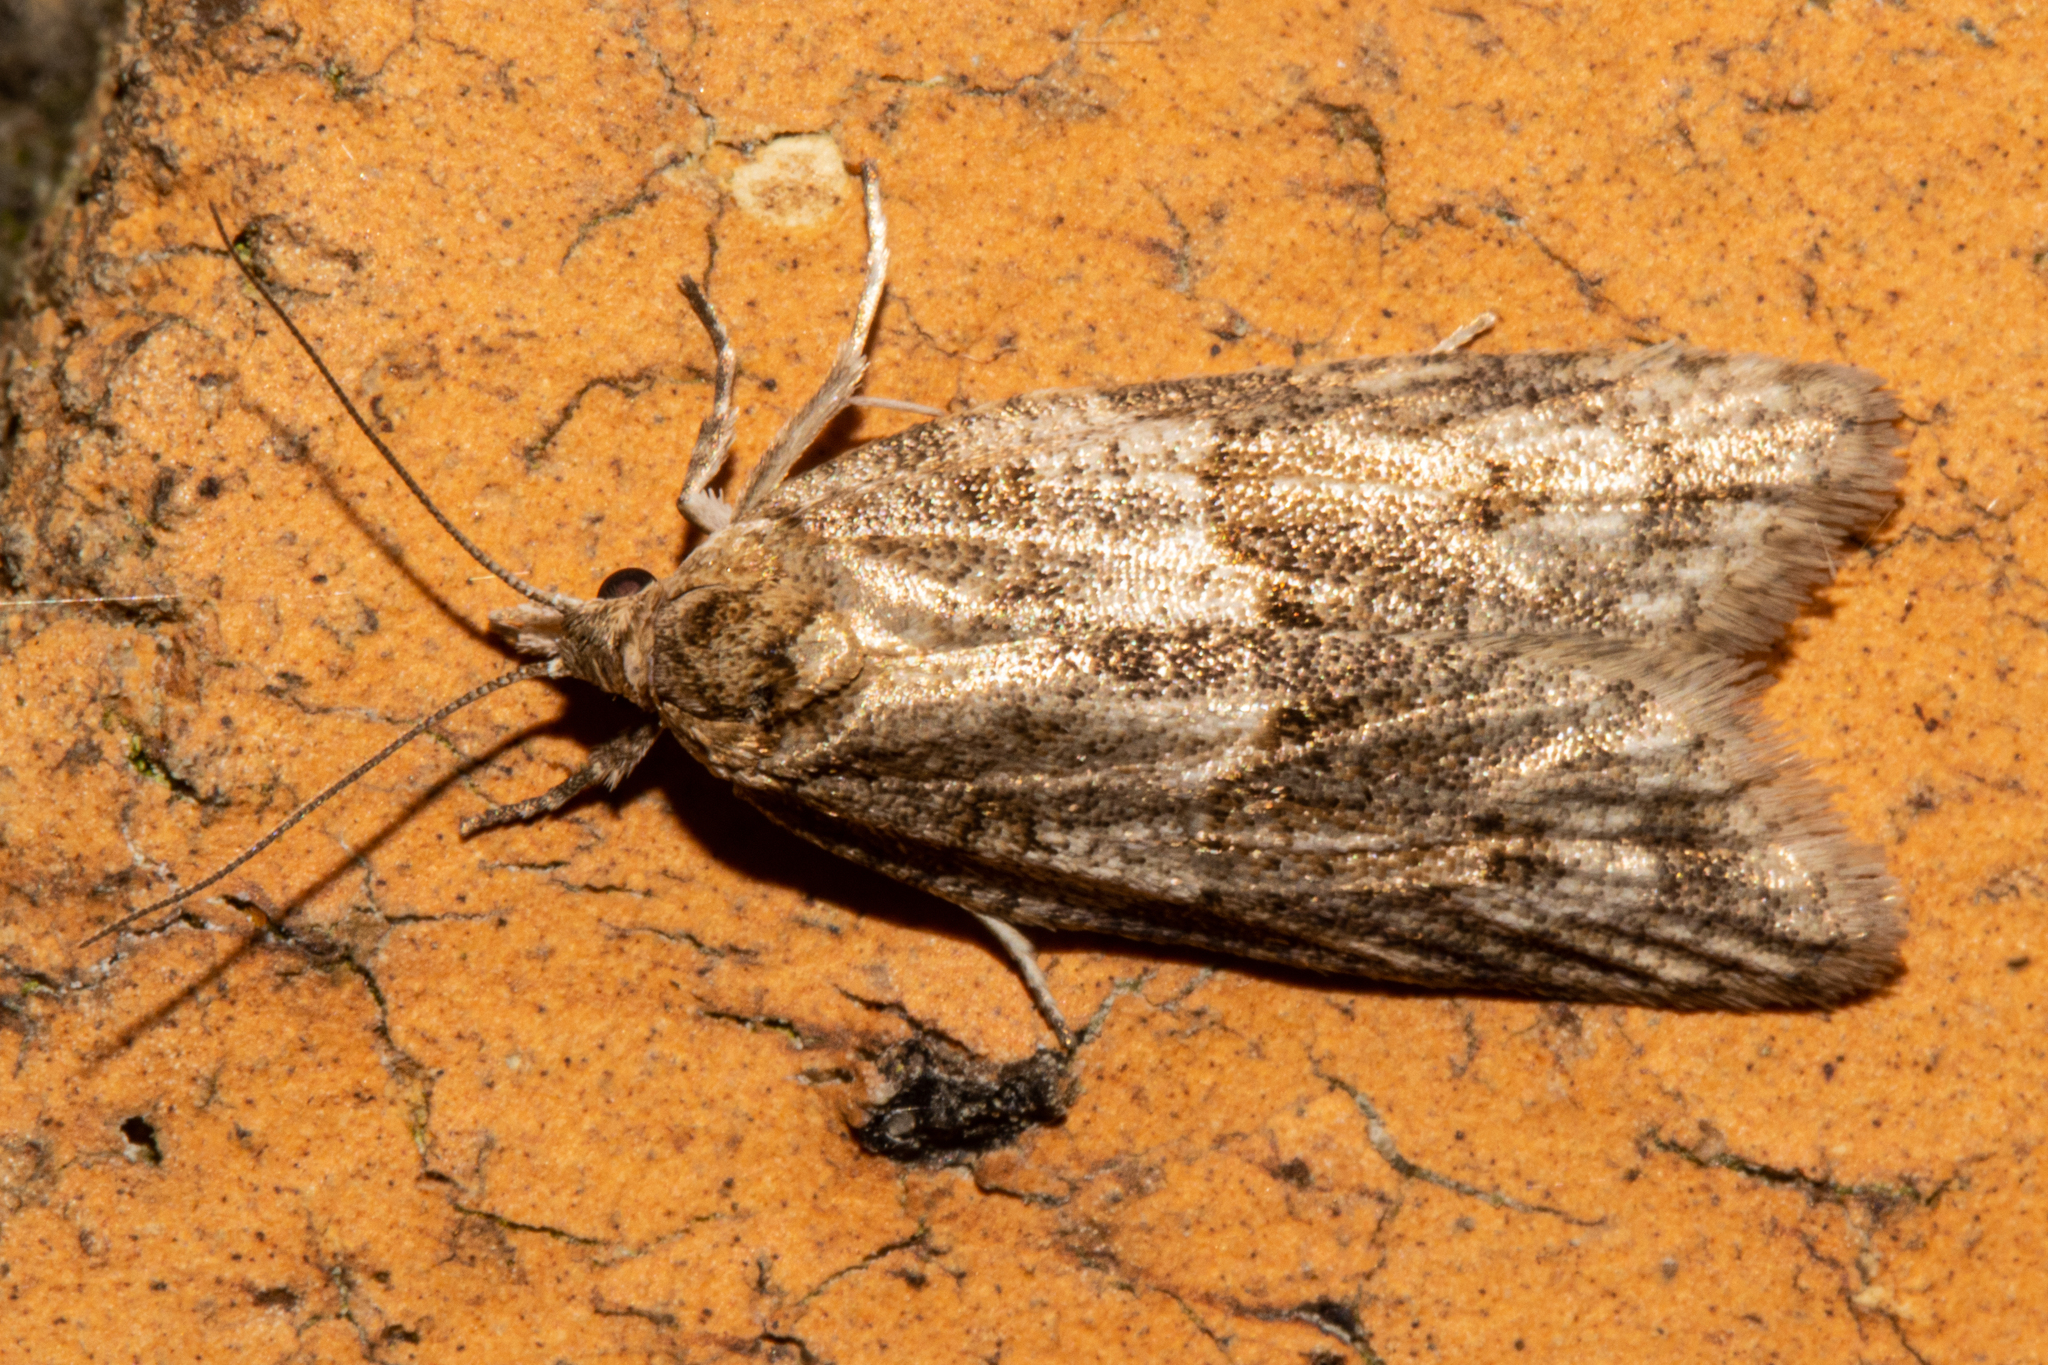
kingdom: Animalia
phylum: Arthropoda
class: Insecta
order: Lepidoptera
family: Tortricidae
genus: Prothelymna
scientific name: Prothelymna antiquana
